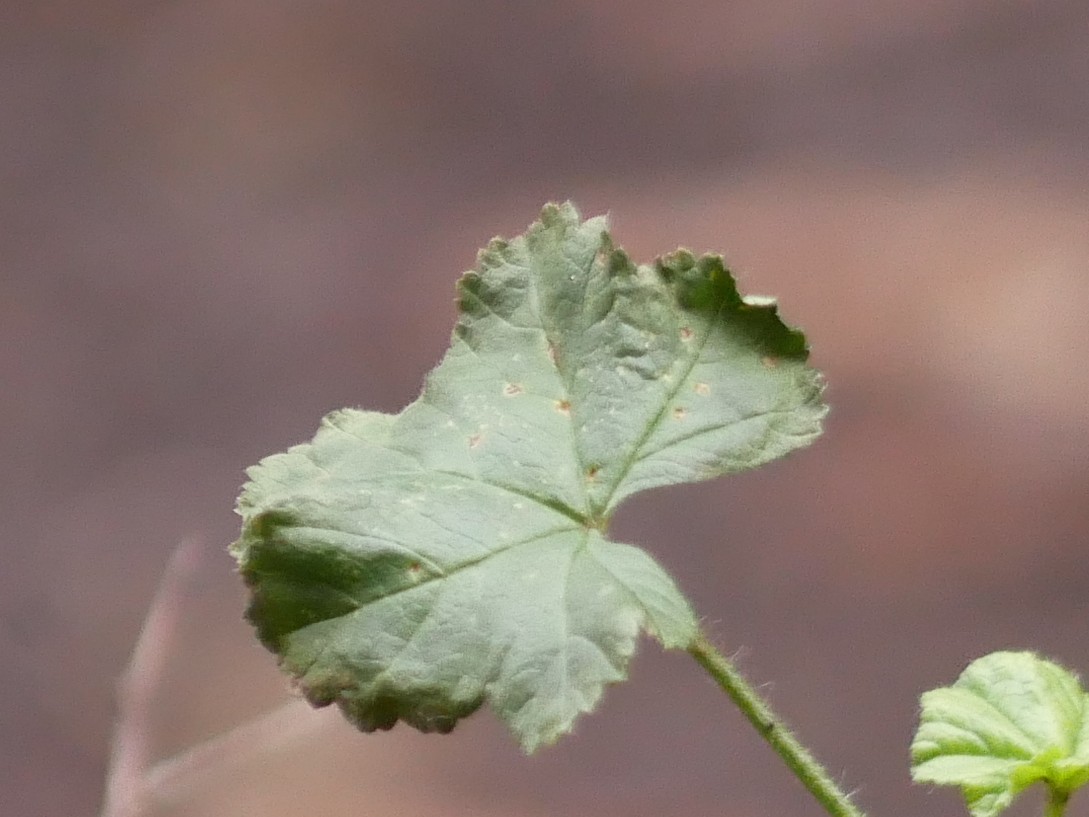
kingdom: Fungi
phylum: Basidiomycota
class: Pucciniomycetes
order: Pucciniales
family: Pucciniaceae
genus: Puccinia
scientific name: Puccinia malvacearum
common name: Hollyhock rust
